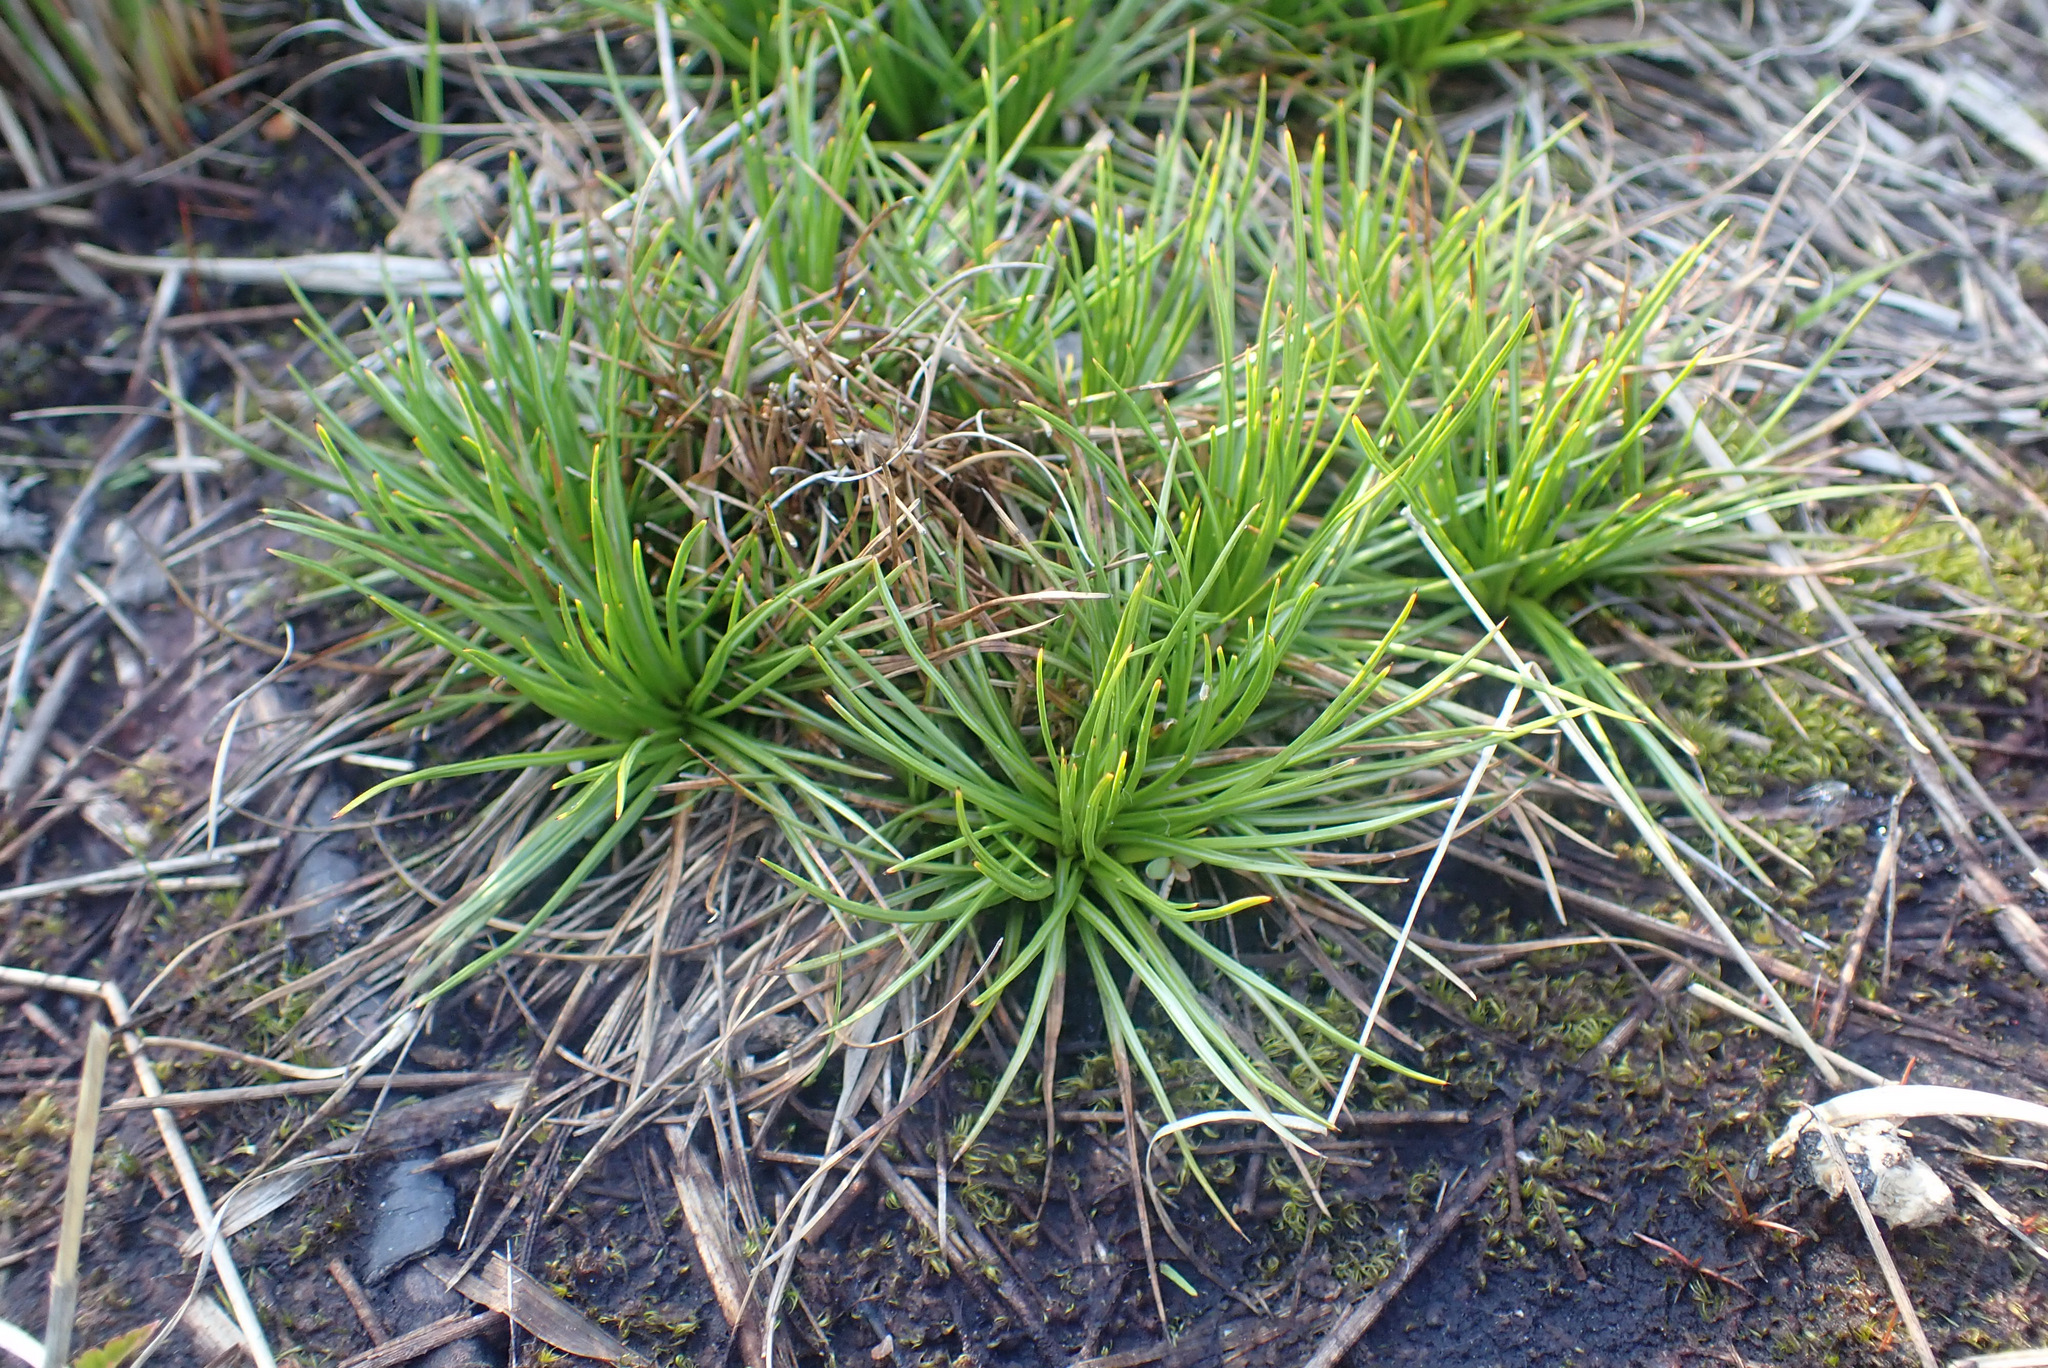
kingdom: Plantae
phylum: Tracheophyta
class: Liliopsida
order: Poales
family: Juncaceae
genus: Juncus
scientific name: Juncus squarrosus
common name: Heath rush
